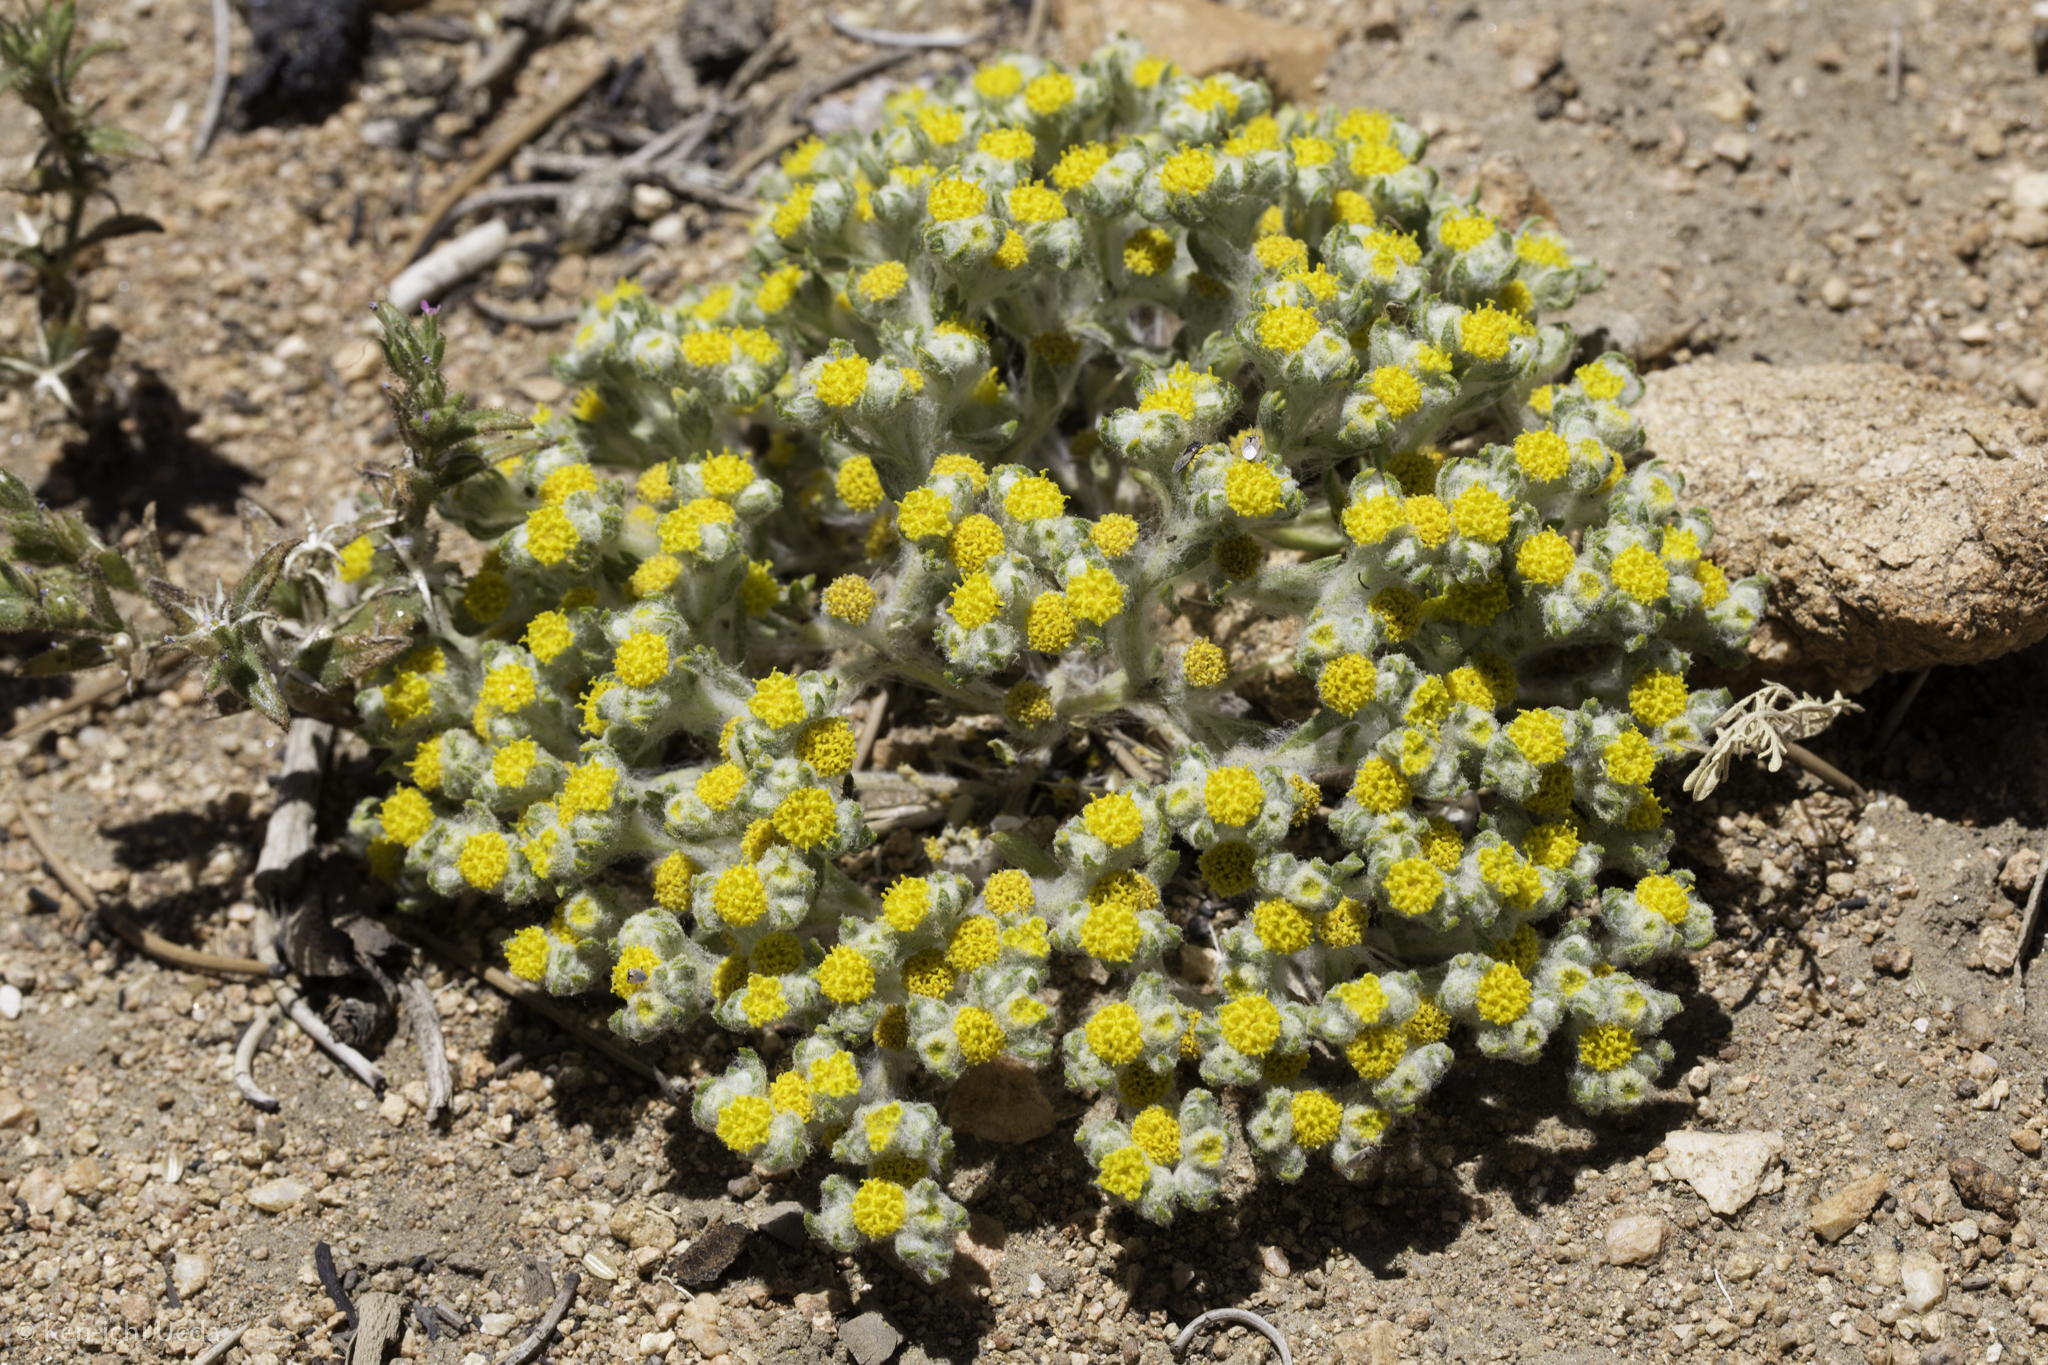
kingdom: Plantae
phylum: Tracheophyta
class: Magnoliopsida
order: Asterales
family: Asteraceae
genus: Eriophyllum
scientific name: Eriophyllum pringlei
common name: Pringle's woolly-sunflower
